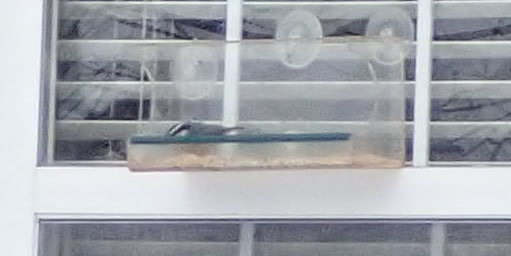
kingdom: Animalia
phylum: Chordata
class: Aves
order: Passeriformes
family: Sittidae
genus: Sitta
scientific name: Sitta canadensis
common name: Red-breasted nuthatch
